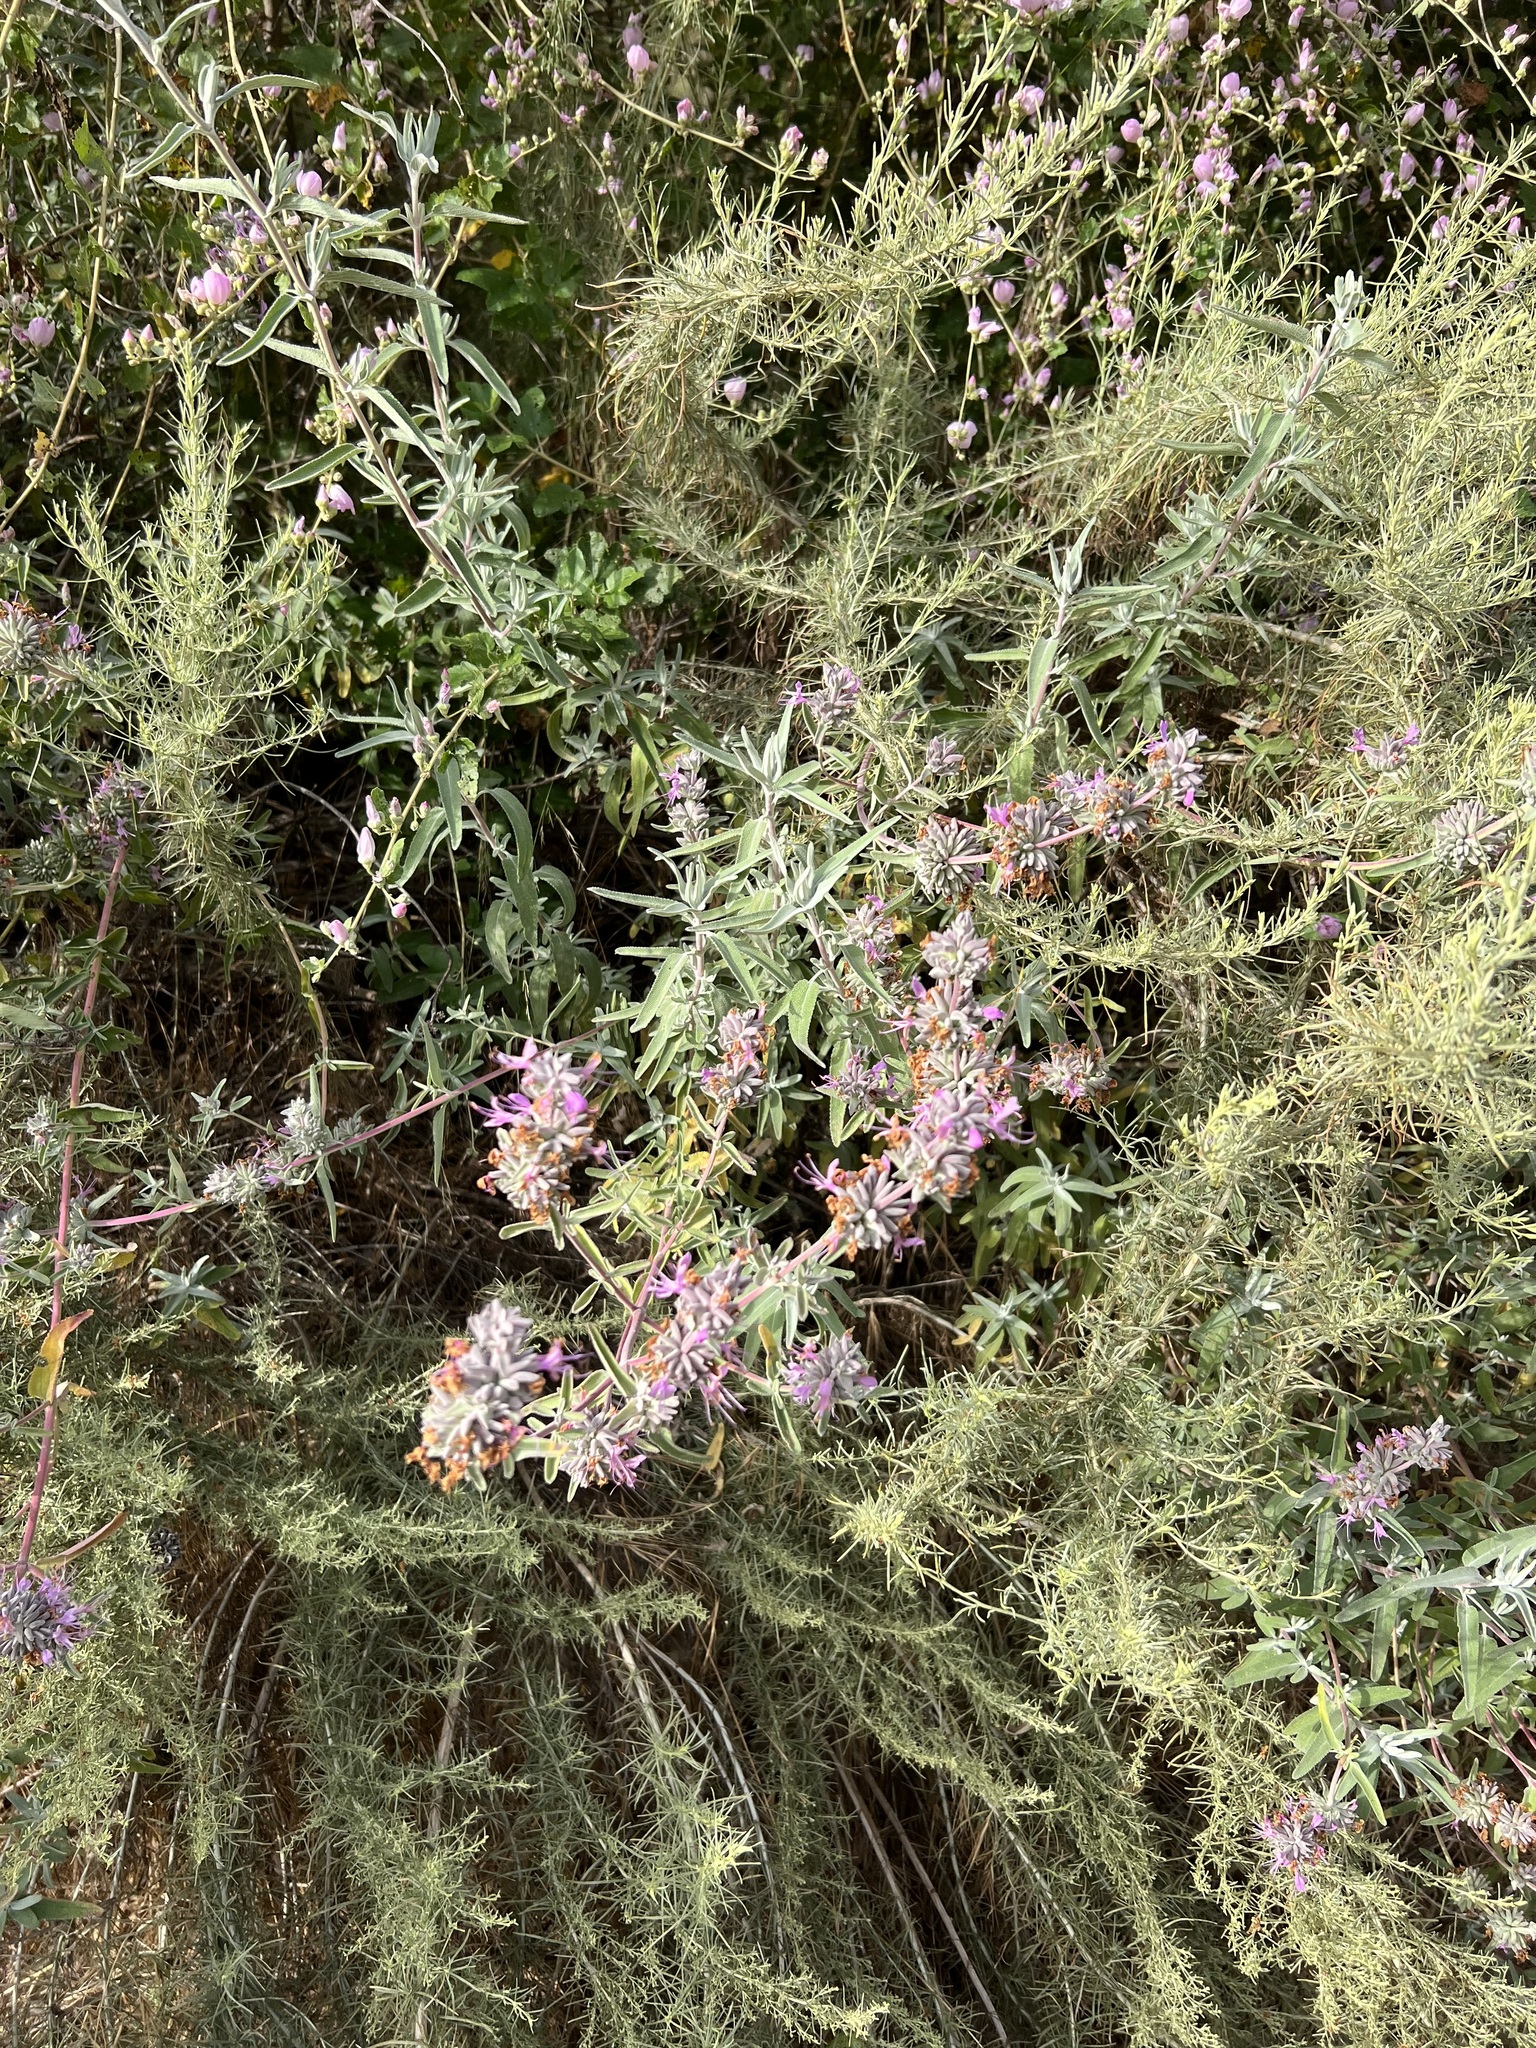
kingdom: Plantae
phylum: Tracheophyta
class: Magnoliopsida
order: Lamiales
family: Lamiaceae
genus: Salvia
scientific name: Salvia leucophylla
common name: Purple sage
